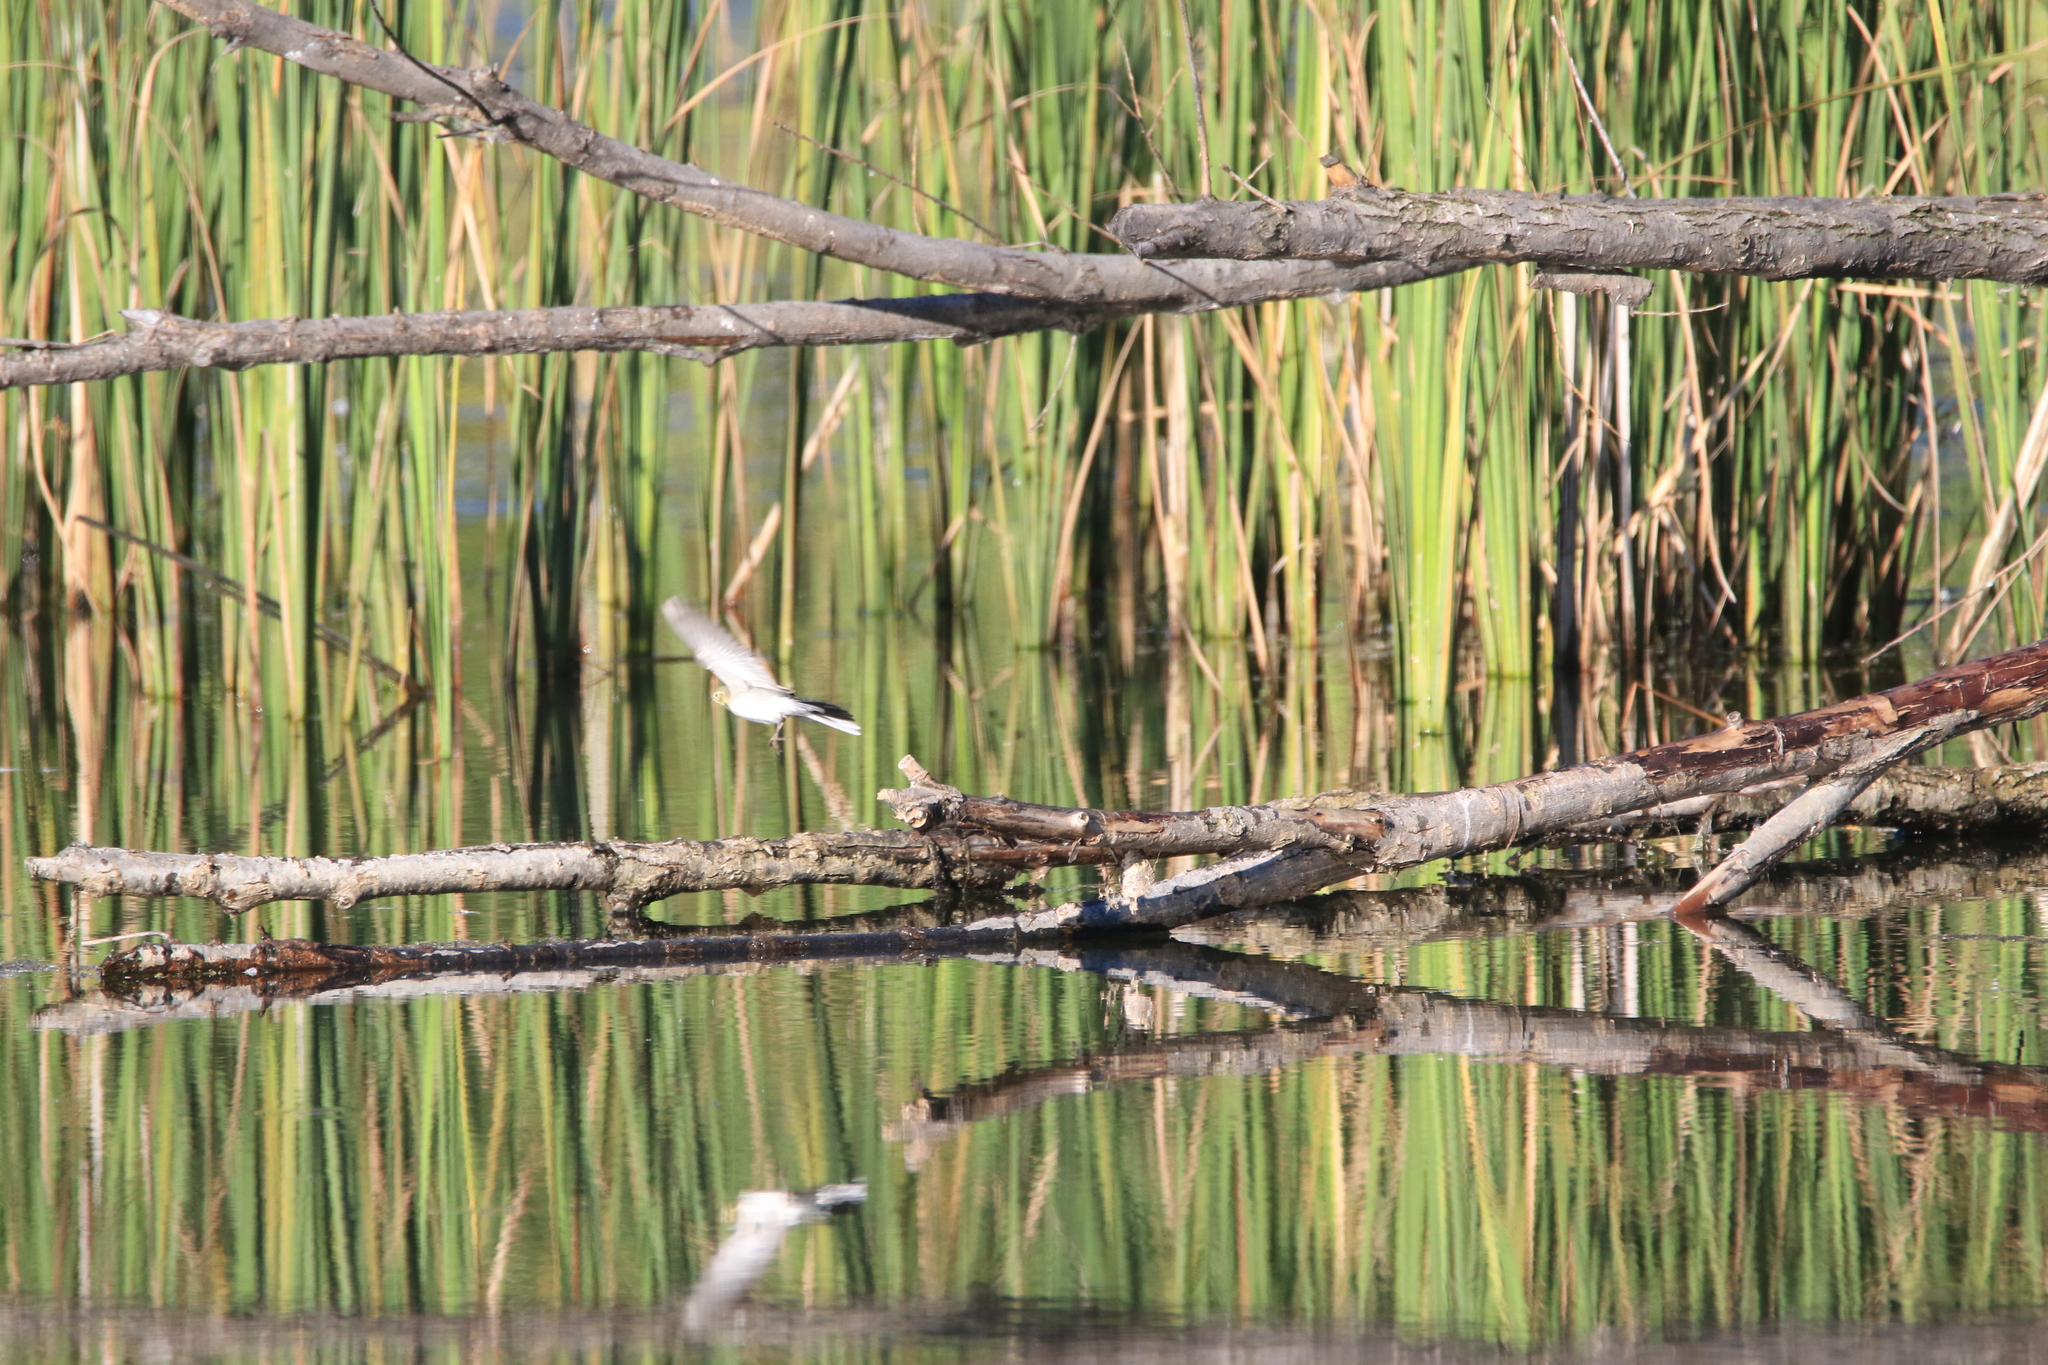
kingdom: Animalia
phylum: Chordata
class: Aves
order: Passeriformes
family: Motacillidae
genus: Motacilla
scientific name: Motacilla alba
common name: White wagtail
